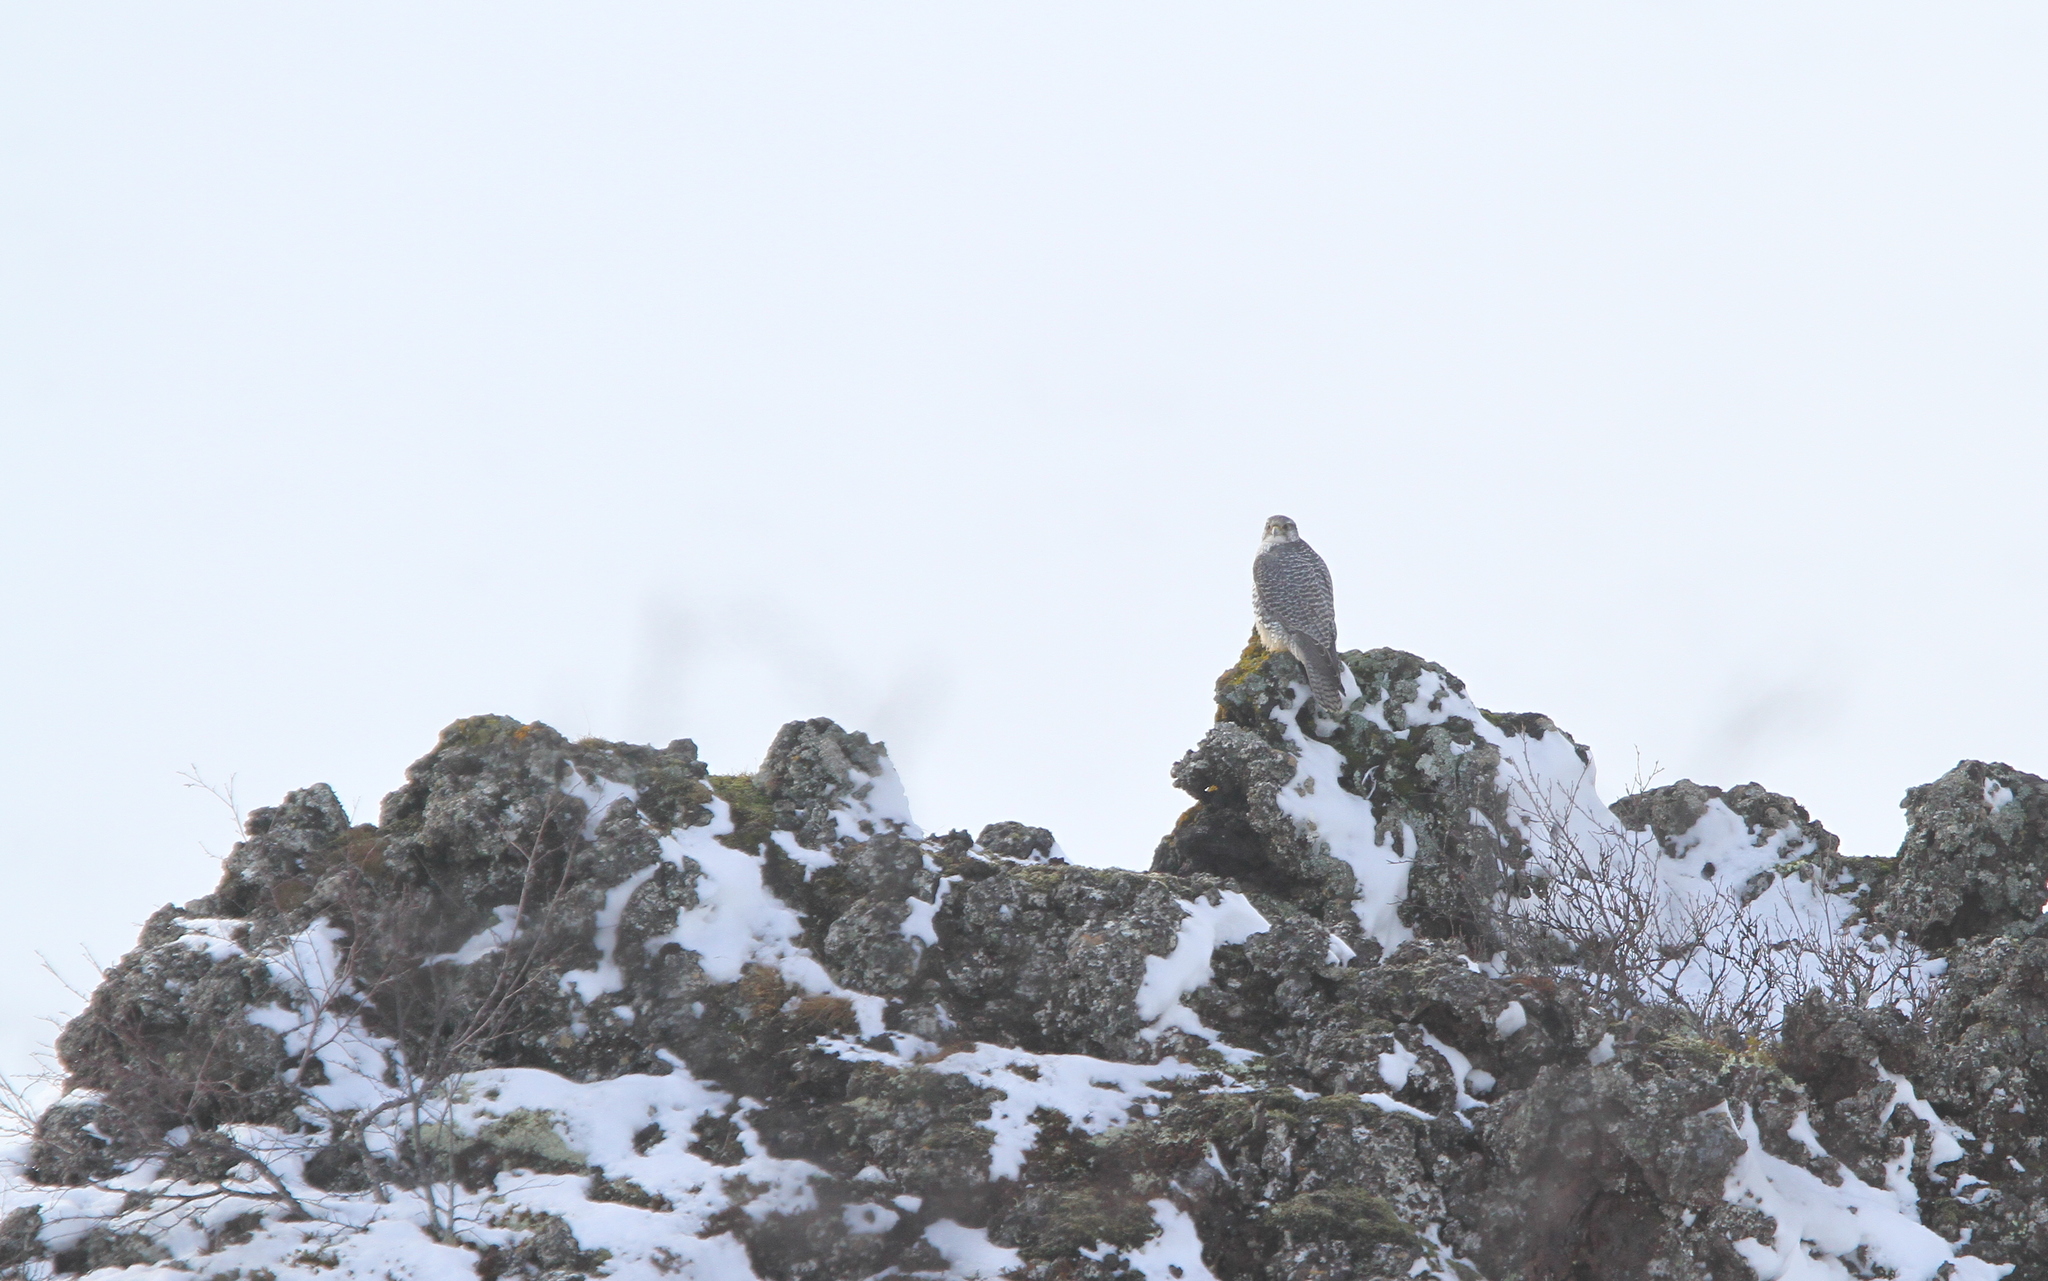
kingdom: Animalia
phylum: Chordata
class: Aves
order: Falconiformes
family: Falconidae
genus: Falco
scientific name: Falco rusticolus
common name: Gyrfalcon
